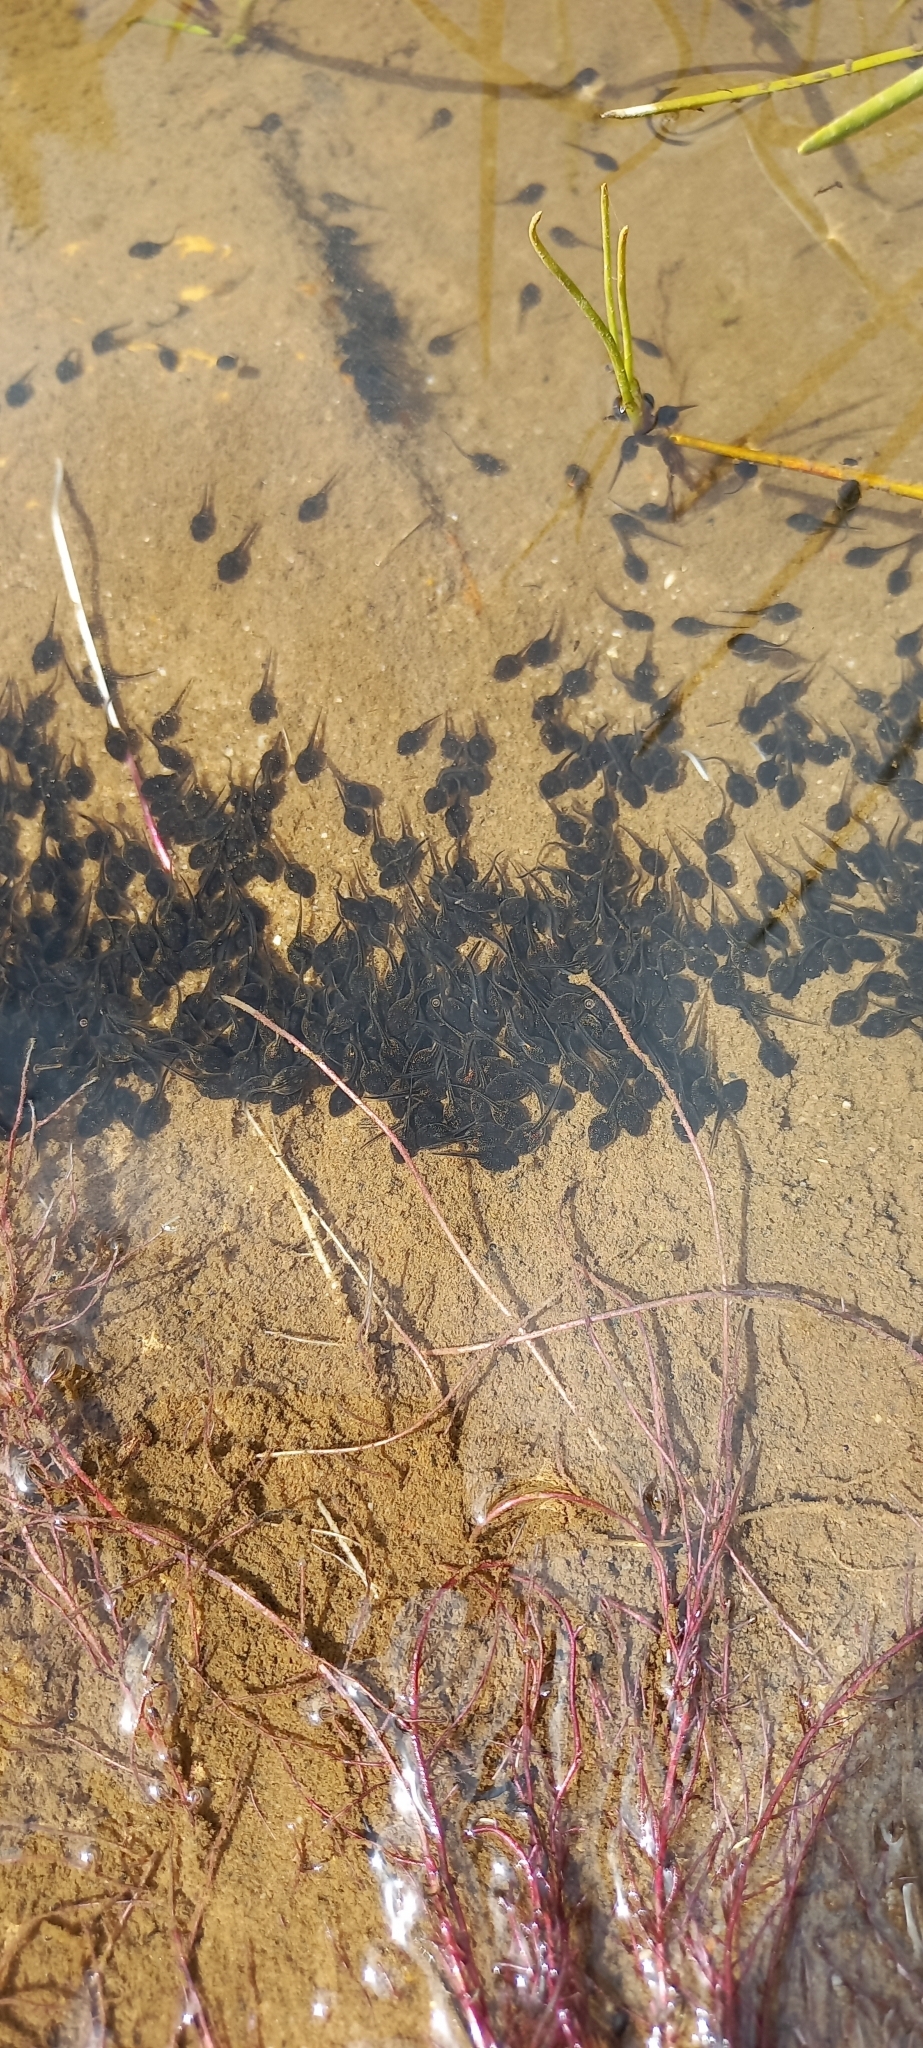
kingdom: Animalia
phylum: Chordata
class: Amphibia
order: Anura
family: Bufonidae
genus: Sclerophrys
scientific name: Sclerophrys capensis
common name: Ranger’s toad
